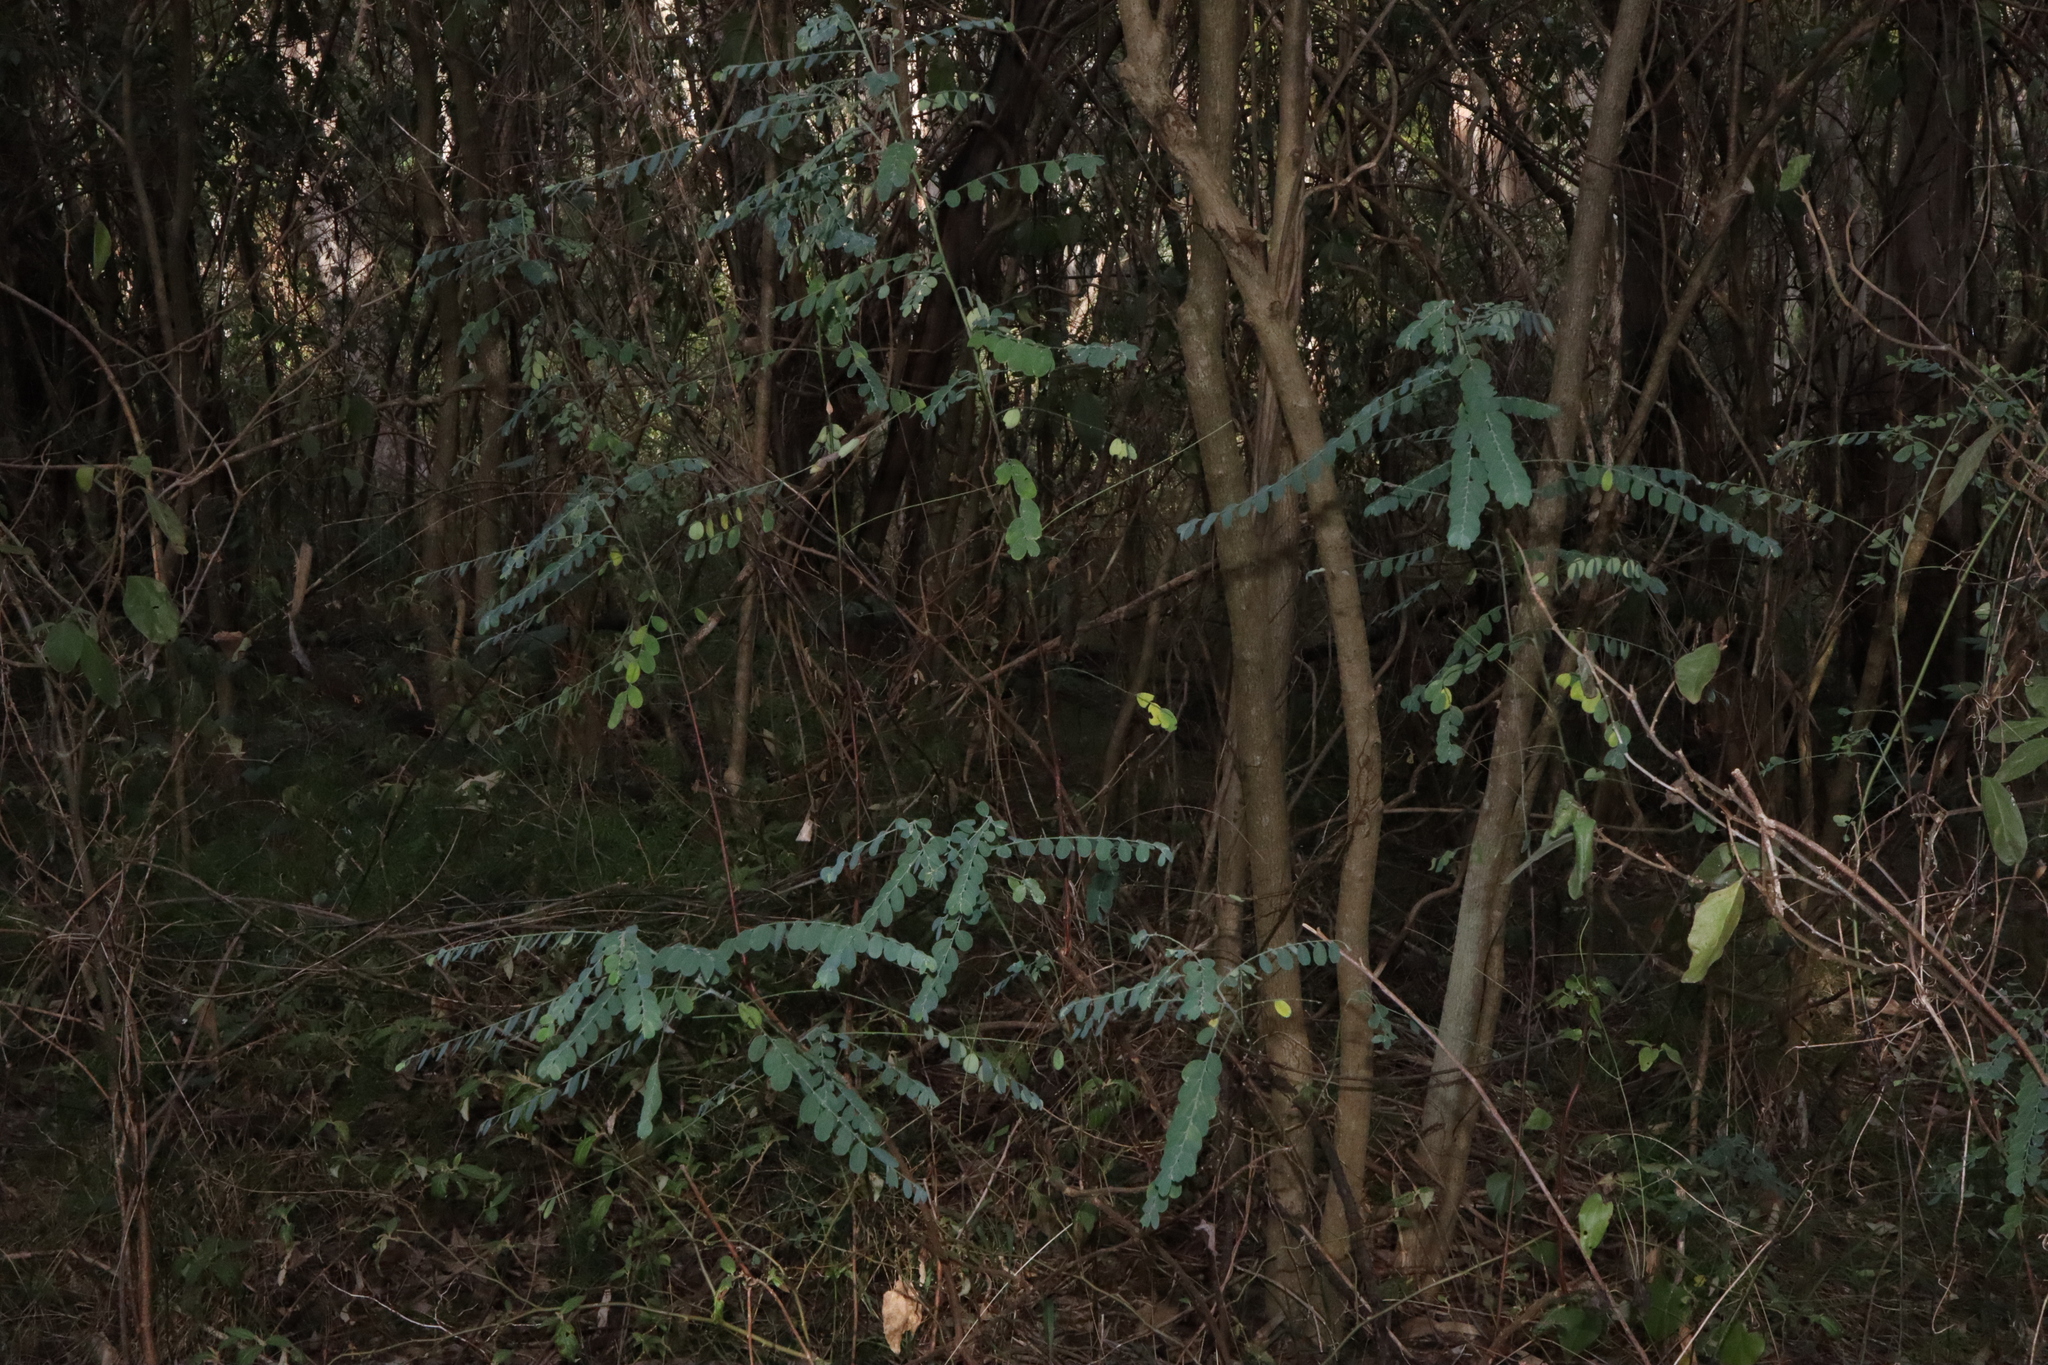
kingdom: Plantae
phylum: Tracheophyta
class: Magnoliopsida
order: Malpighiales
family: Phyllanthaceae
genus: Phyllanthus
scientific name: Phyllanthus gunnii
